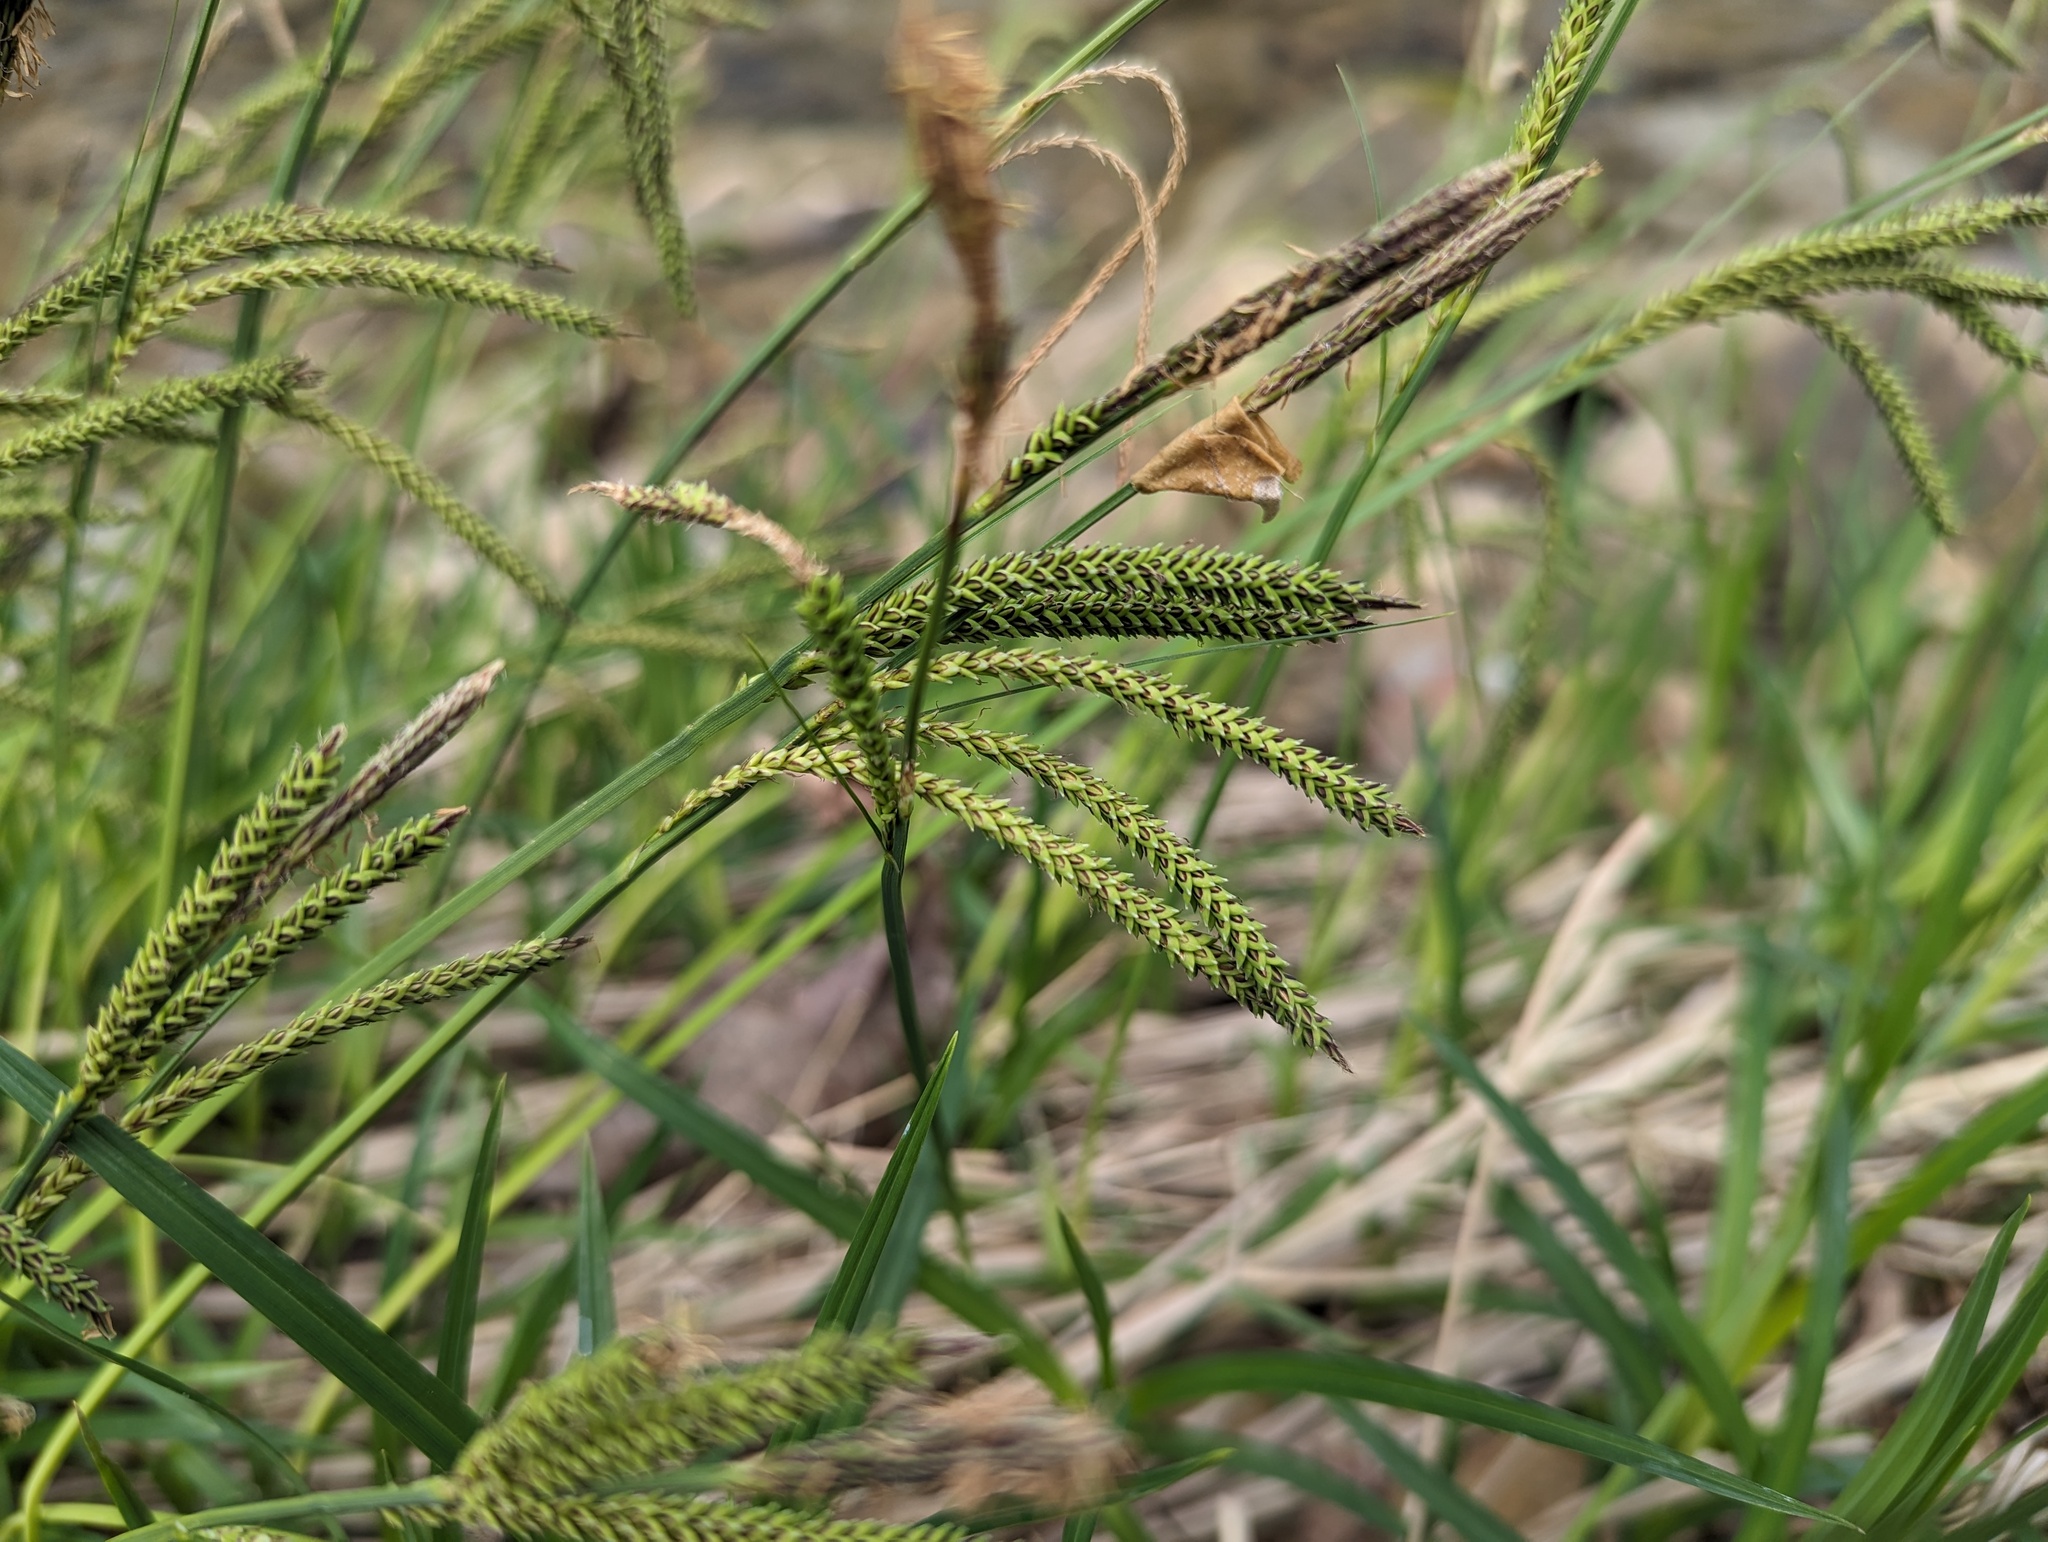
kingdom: Plantae
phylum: Tracheophyta
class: Liliopsida
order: Poales
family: Cyperaceae
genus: Carex
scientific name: Carex torta
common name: Twisted sedge
